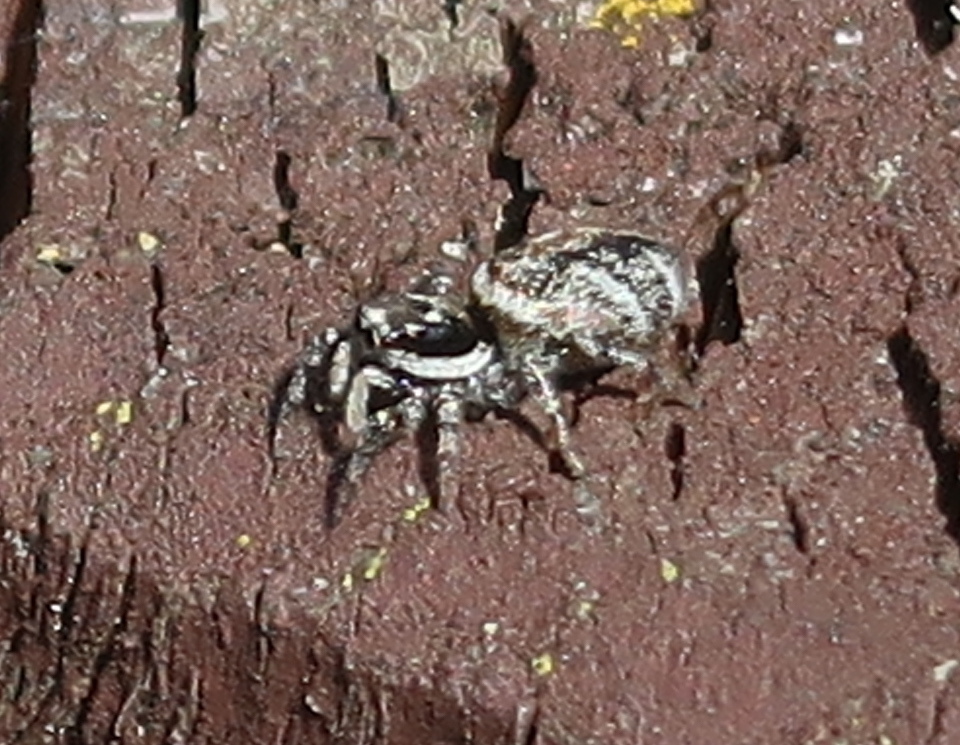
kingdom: Animalia
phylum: Arthropoda
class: Arachnida
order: Araneae
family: Salticidae
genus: Salticus
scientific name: Salticus scenicus
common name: Zebra jumper
